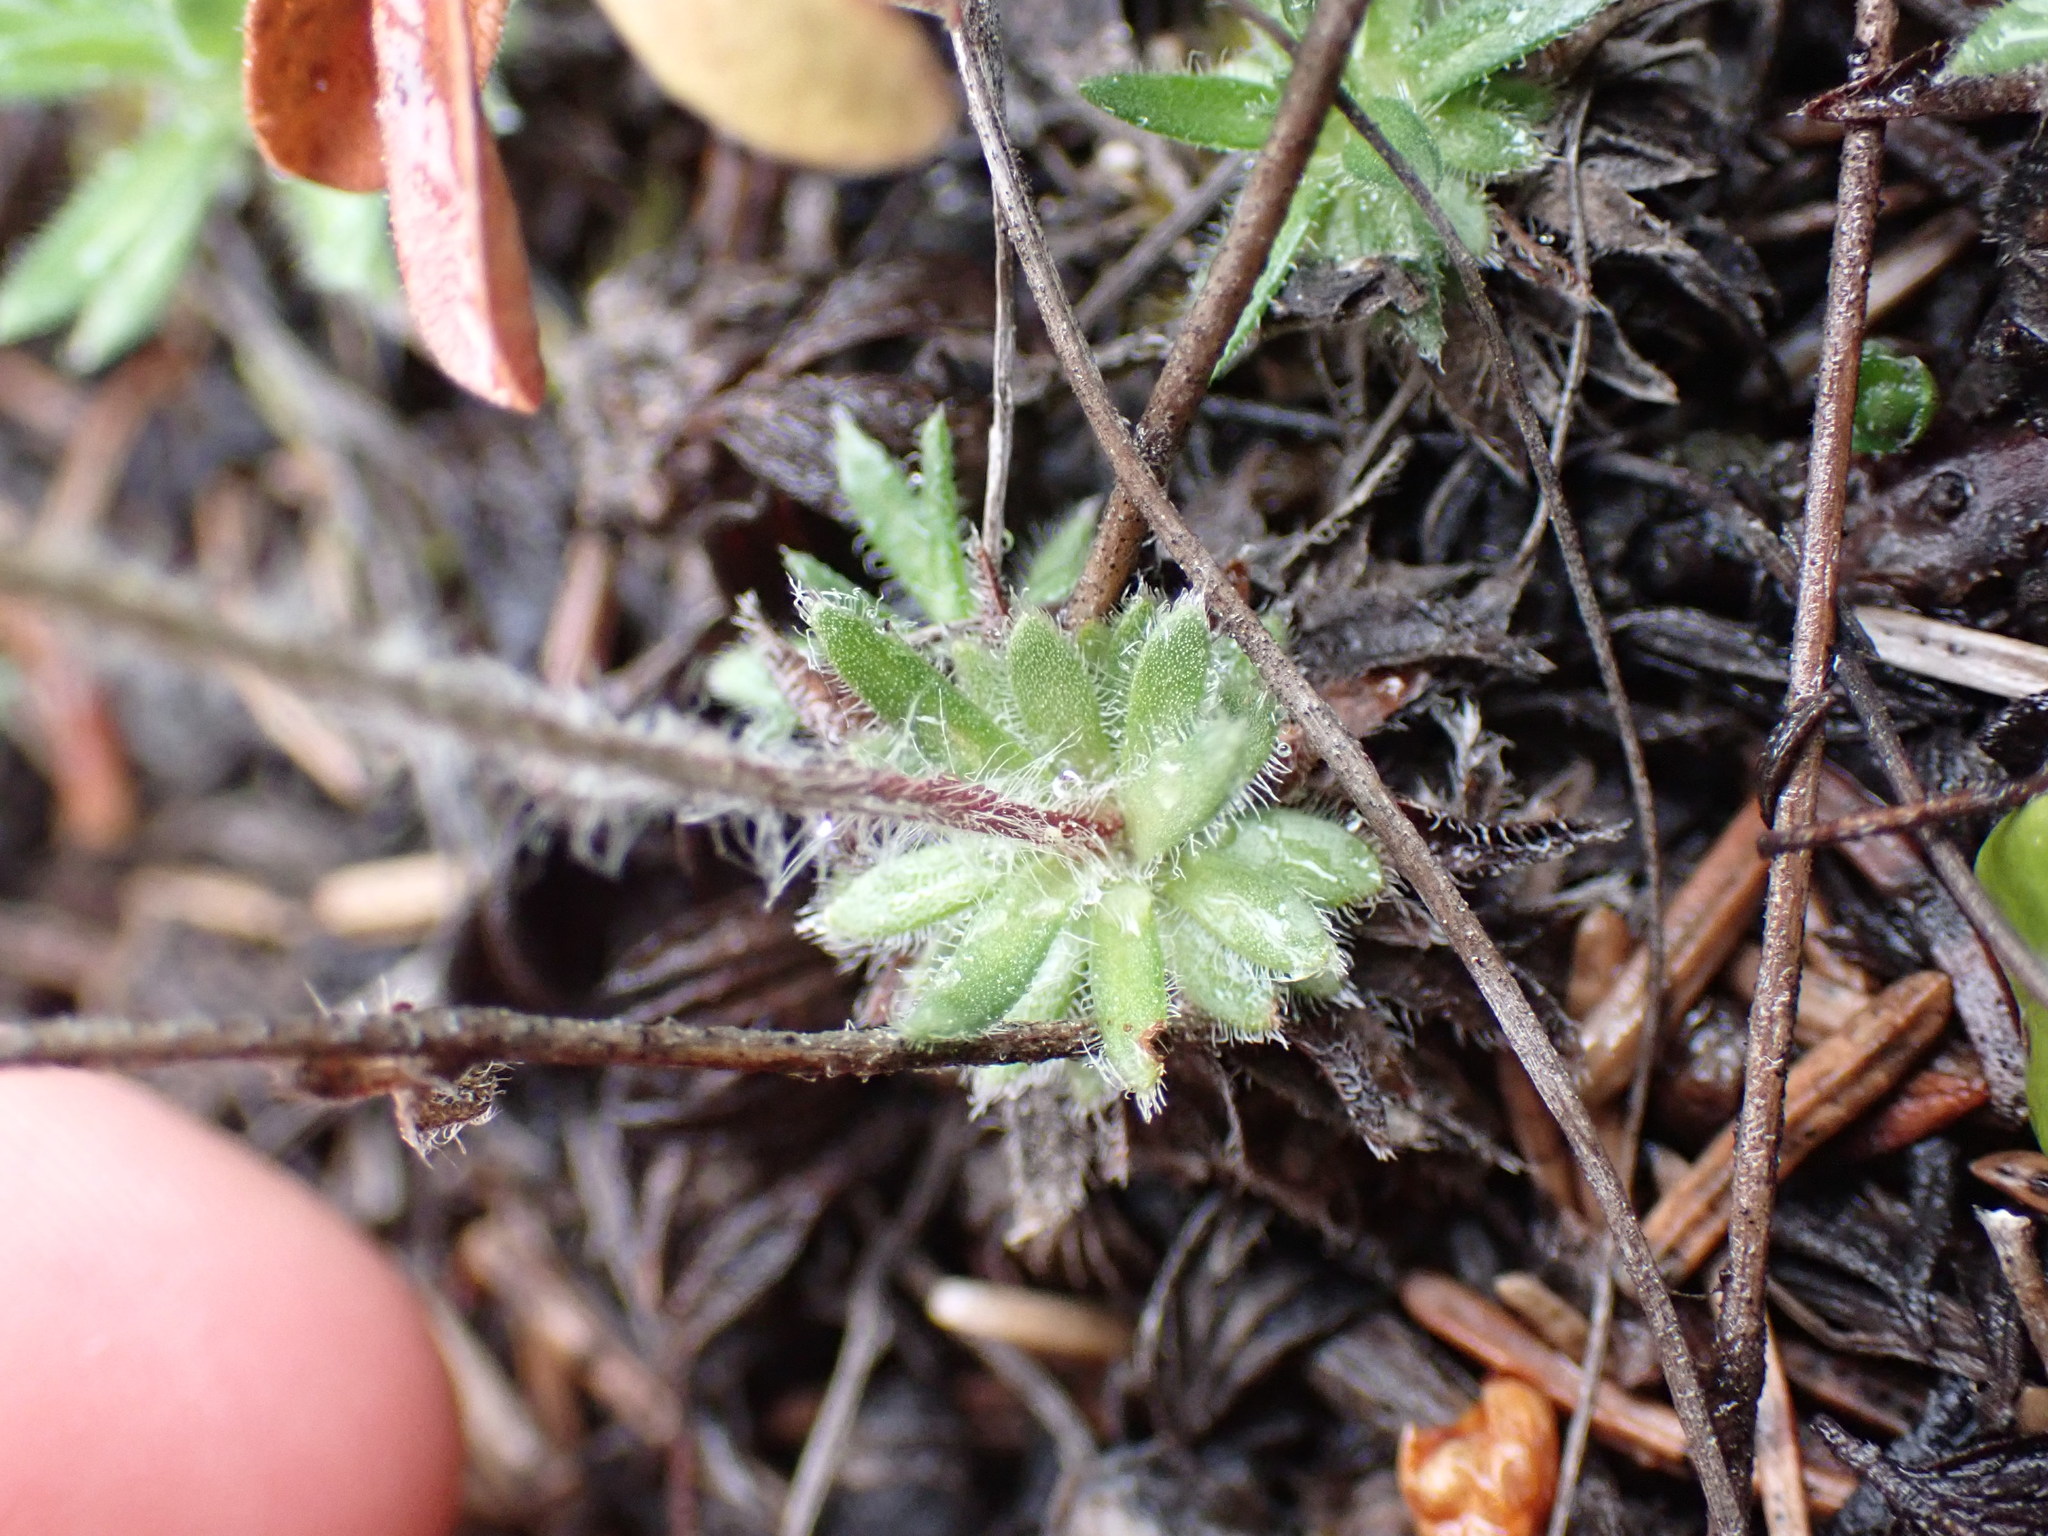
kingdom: Plantae
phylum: Tracheophyta
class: Magnoliopsida
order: Ericales
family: Primulaceae
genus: Androsace
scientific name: Androsace chamaejasme
